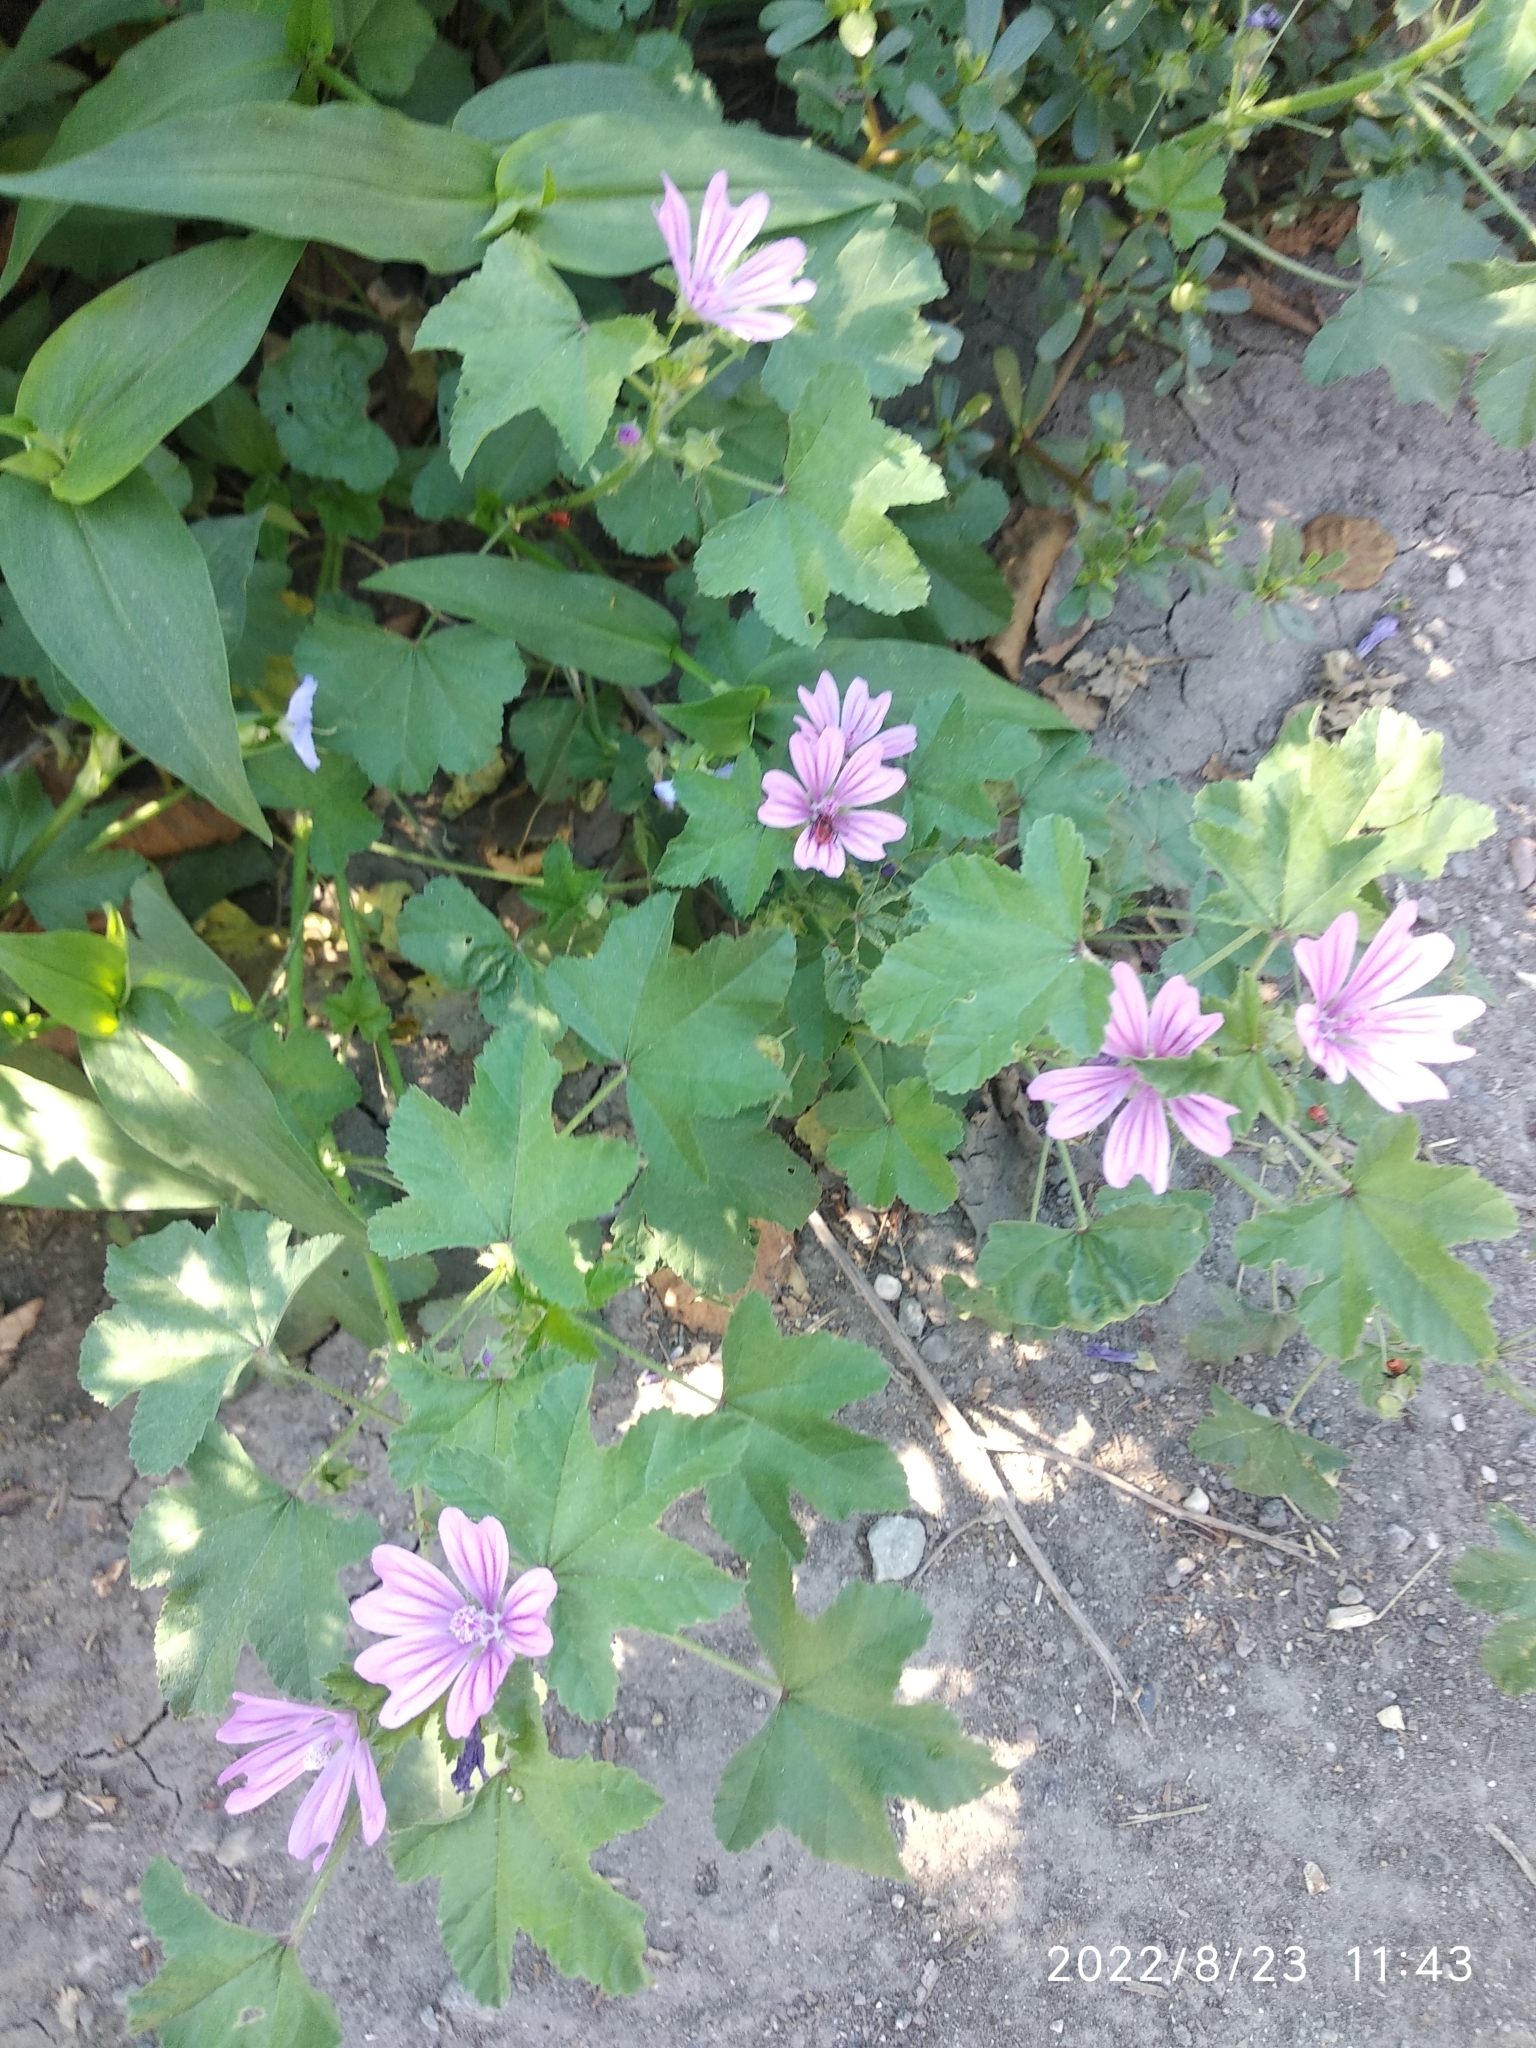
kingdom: Plantae
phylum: Tracheophyta
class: Magnoliopsida
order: Malvales
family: Malvaceae
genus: Malva
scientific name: Malva sylvestris
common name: Common mallow
